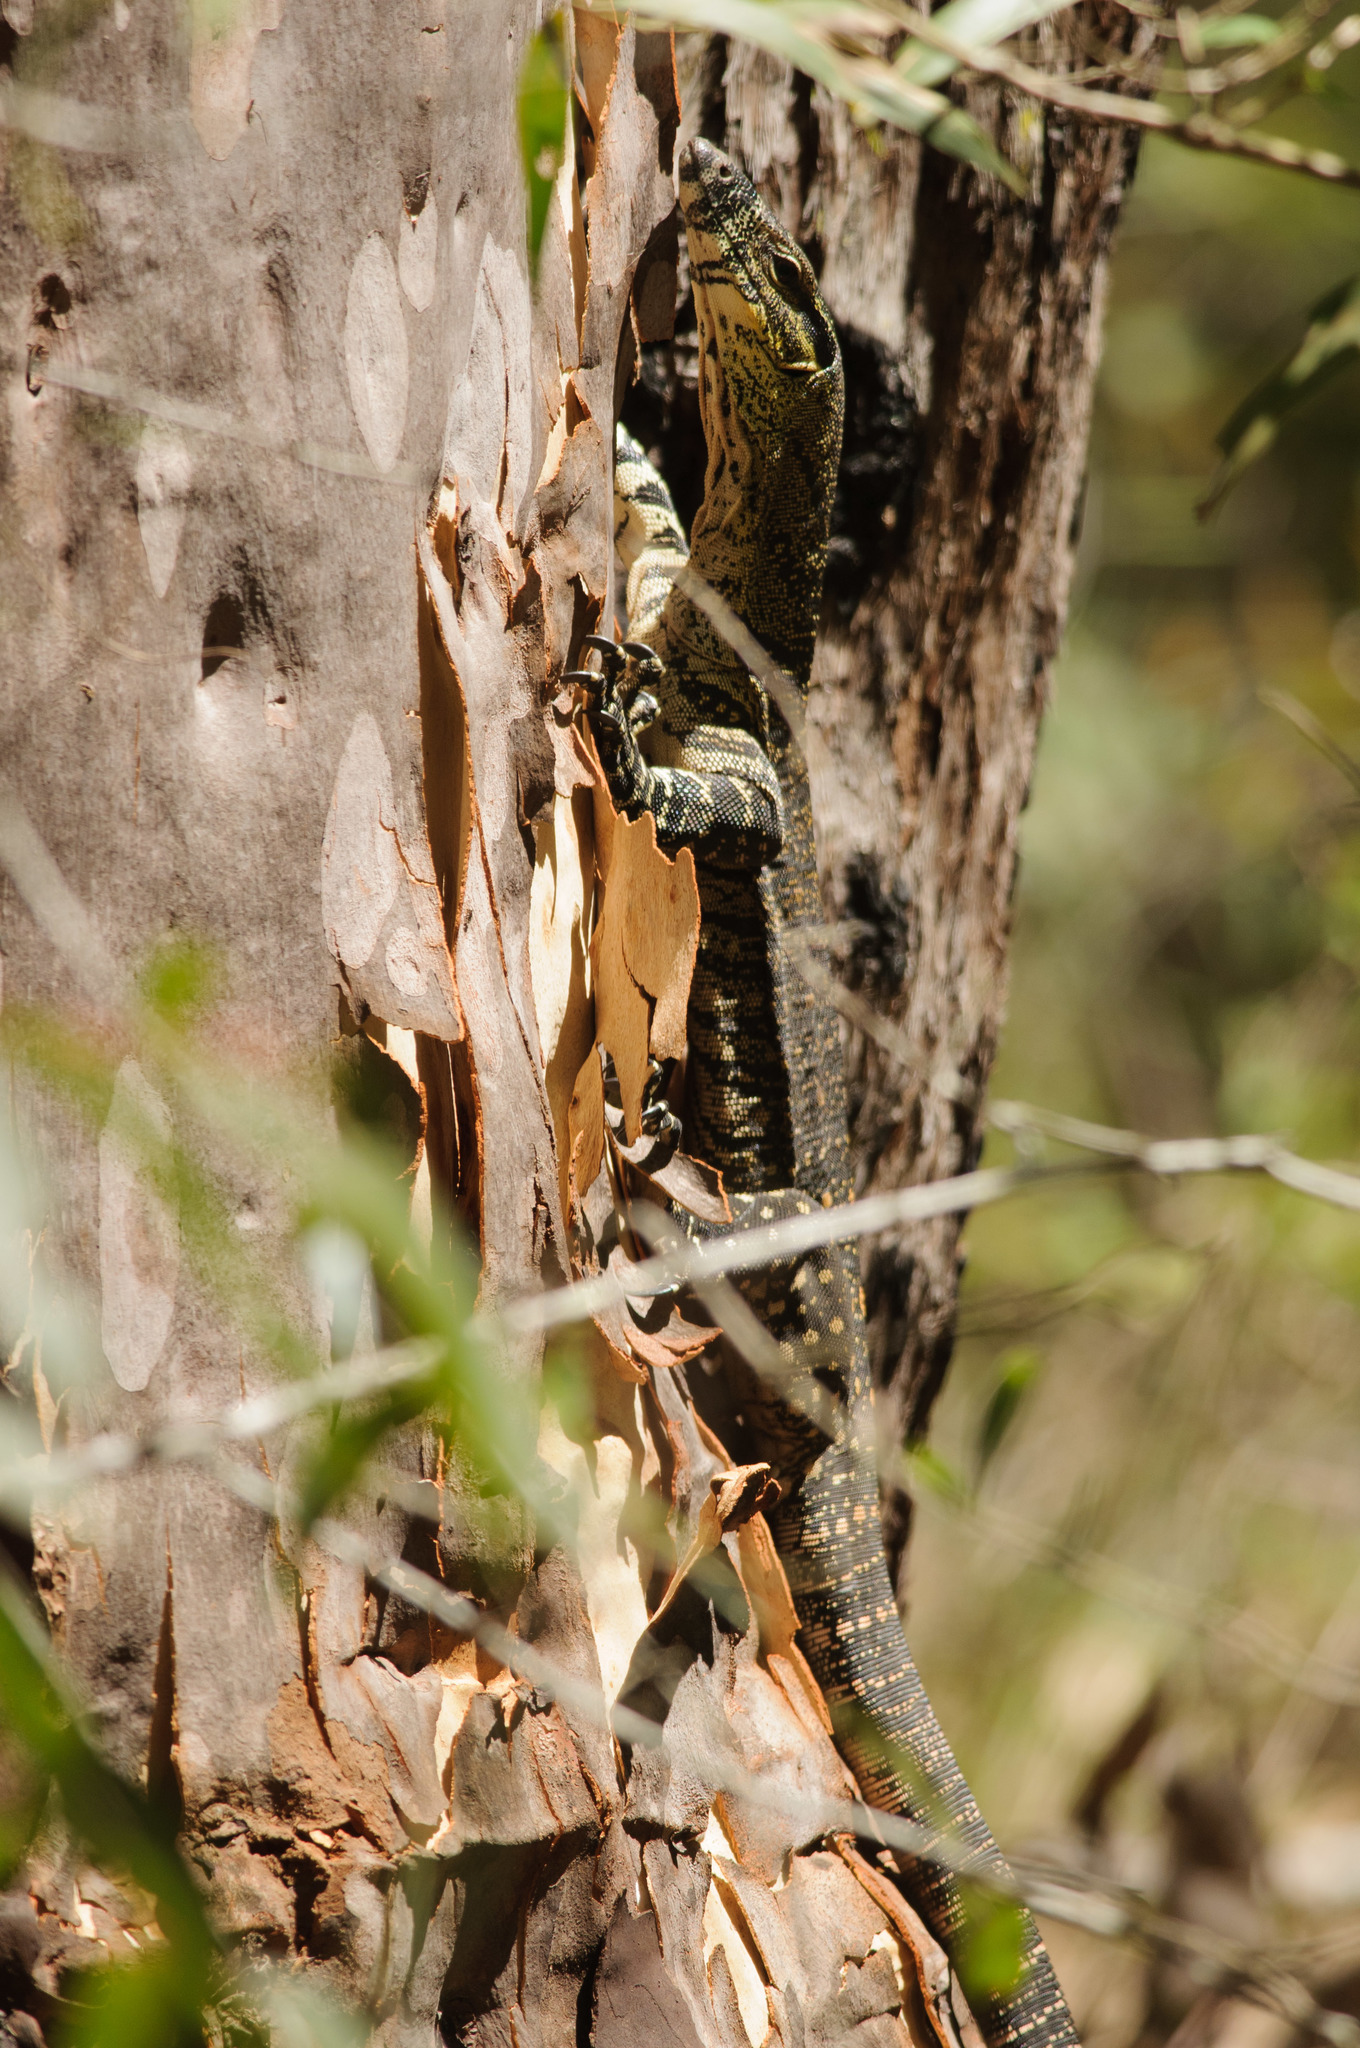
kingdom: Animalia
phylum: Chordata
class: Squamata
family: Varanidae
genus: Varanus
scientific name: Varanus varius
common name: Lace monitor
